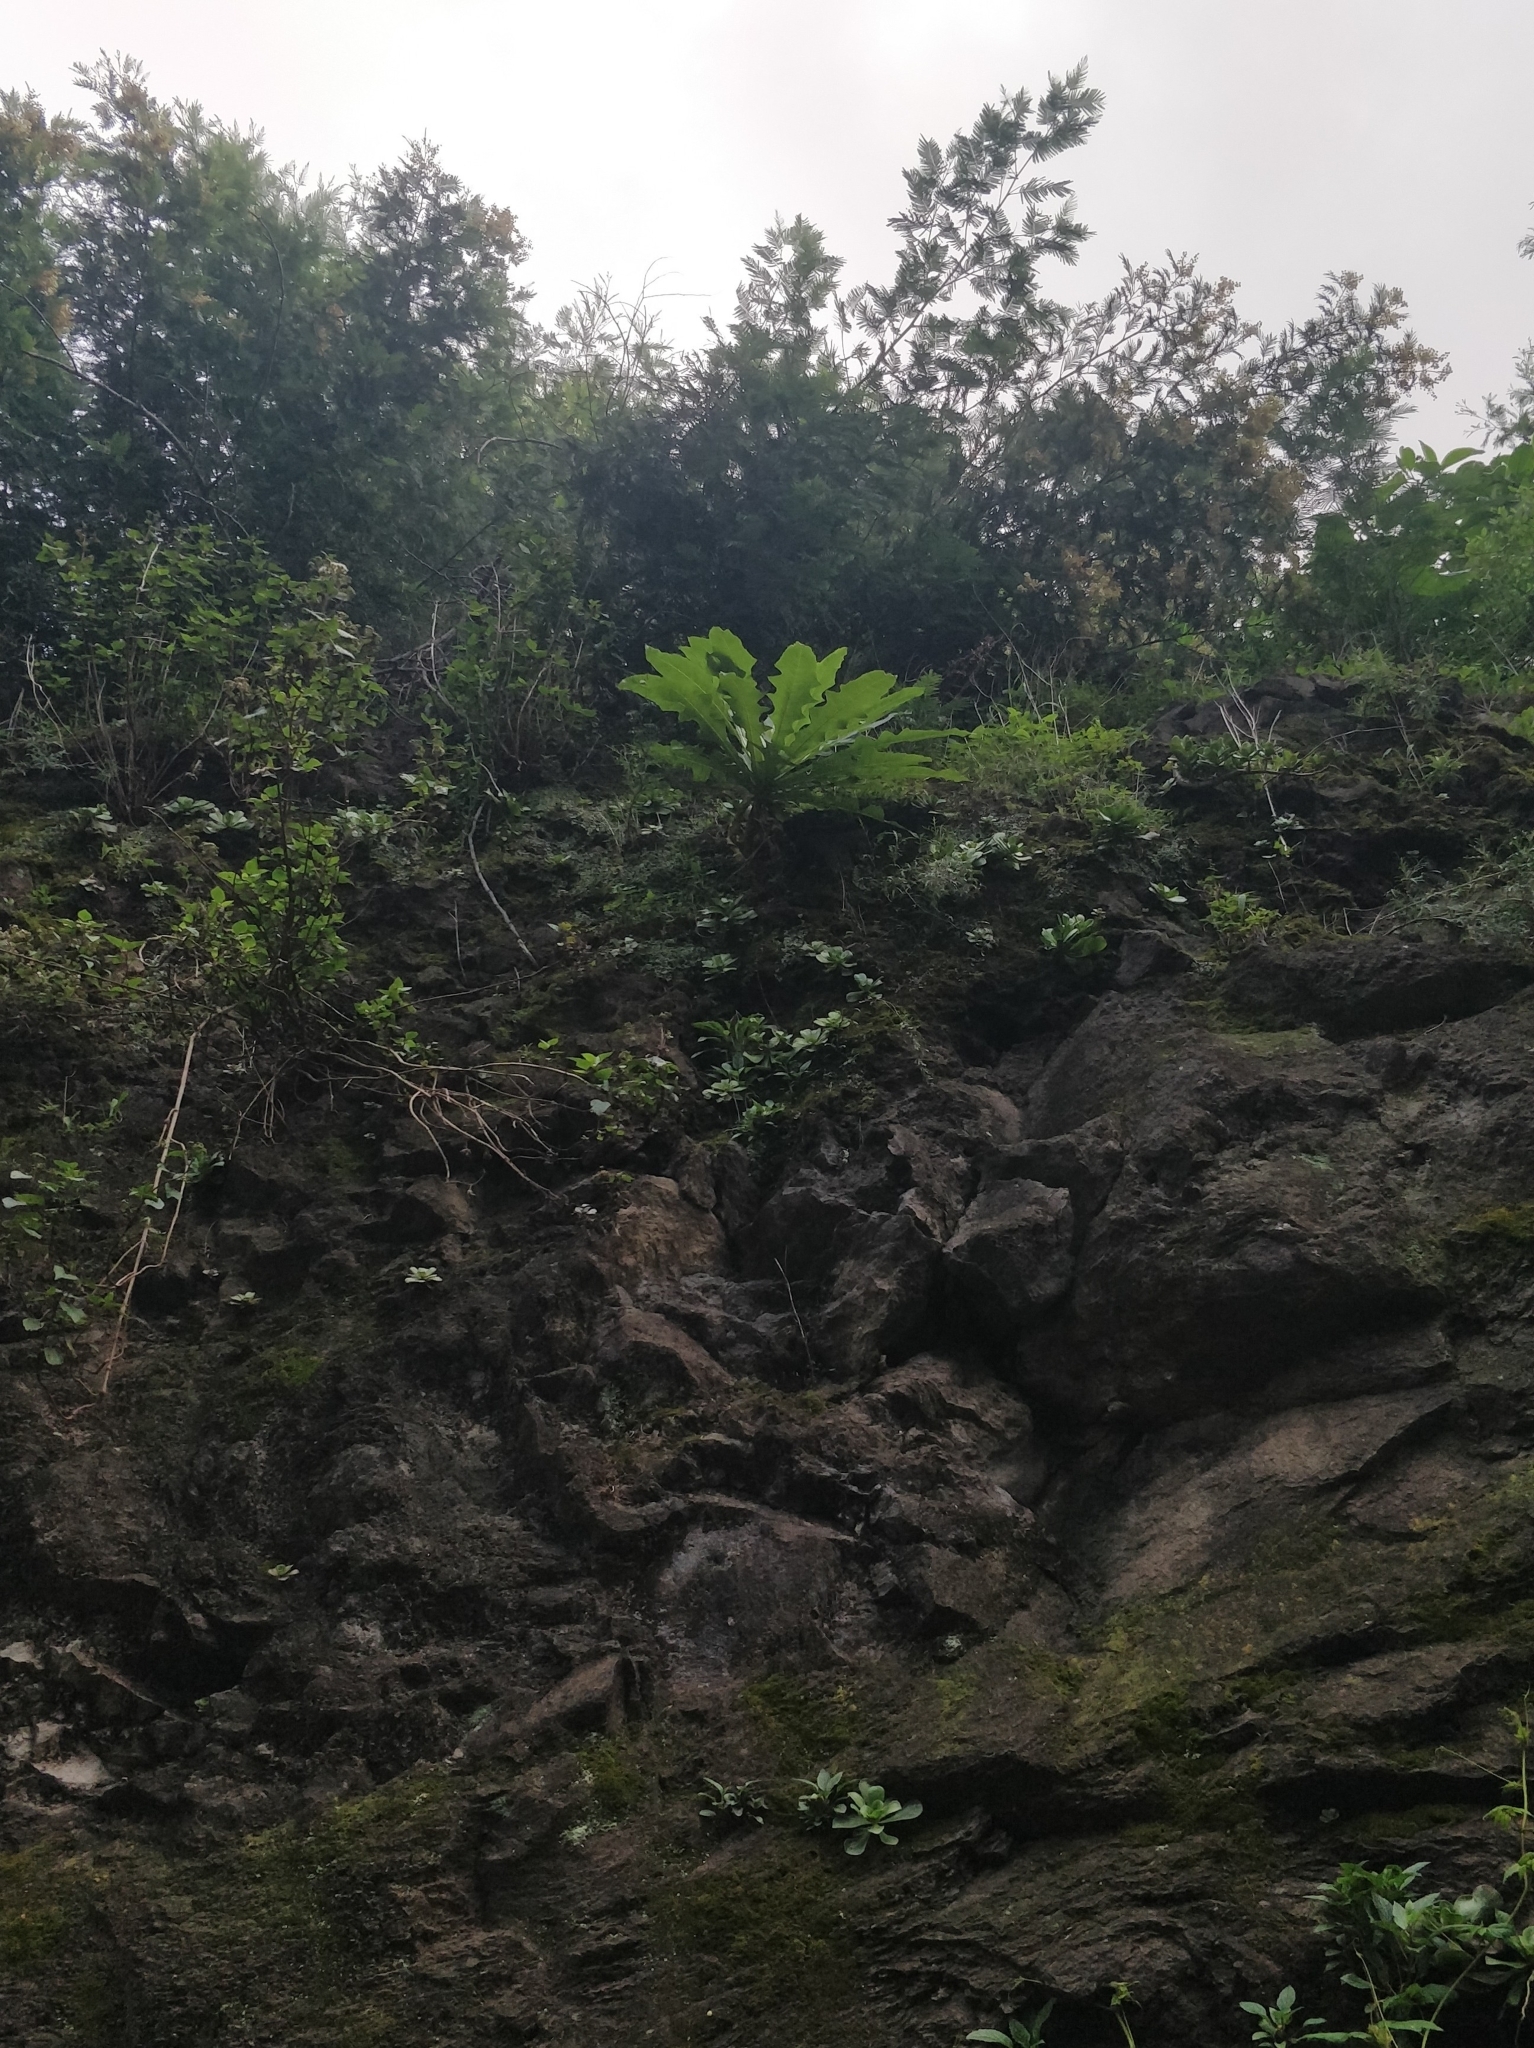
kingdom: Plantae
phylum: Tracheophyta
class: Magnoliopsida
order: Asterales
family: Asteraceae
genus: Sonchus
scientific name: Sonchus fruticosus
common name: Shrubby sow-thistle
